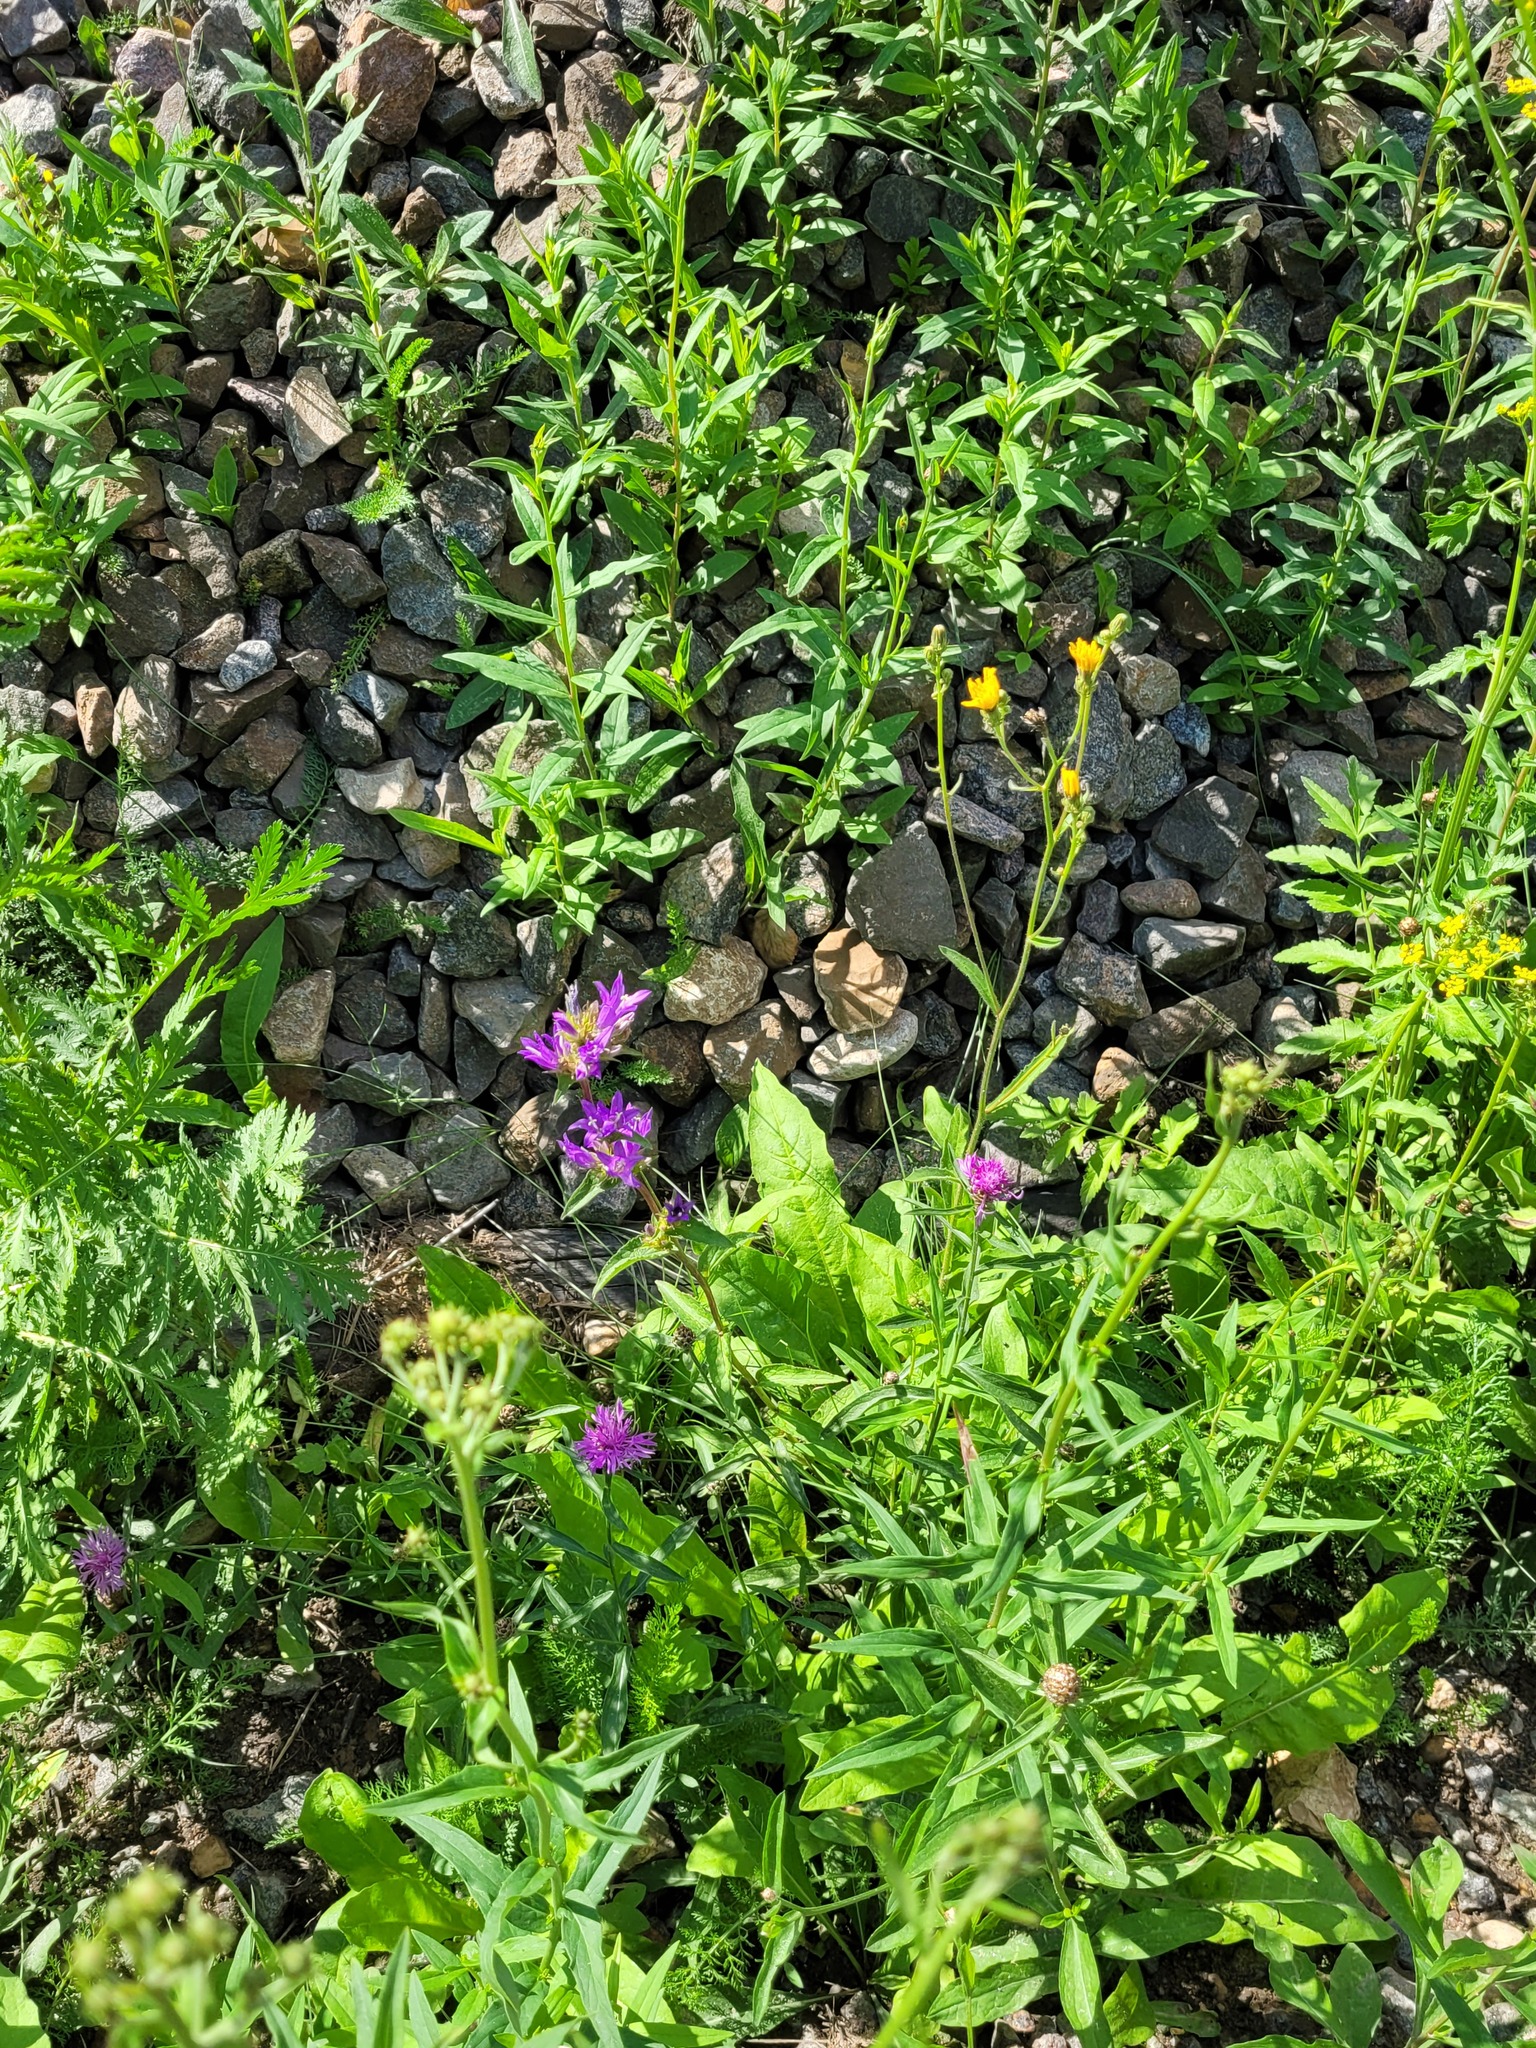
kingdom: Plantae
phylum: Tracheophyta
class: Magnoliopsida
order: Asterales
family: Asteraceae
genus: Picris
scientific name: Picris hieracioides
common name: Hawkweed oxtongue
